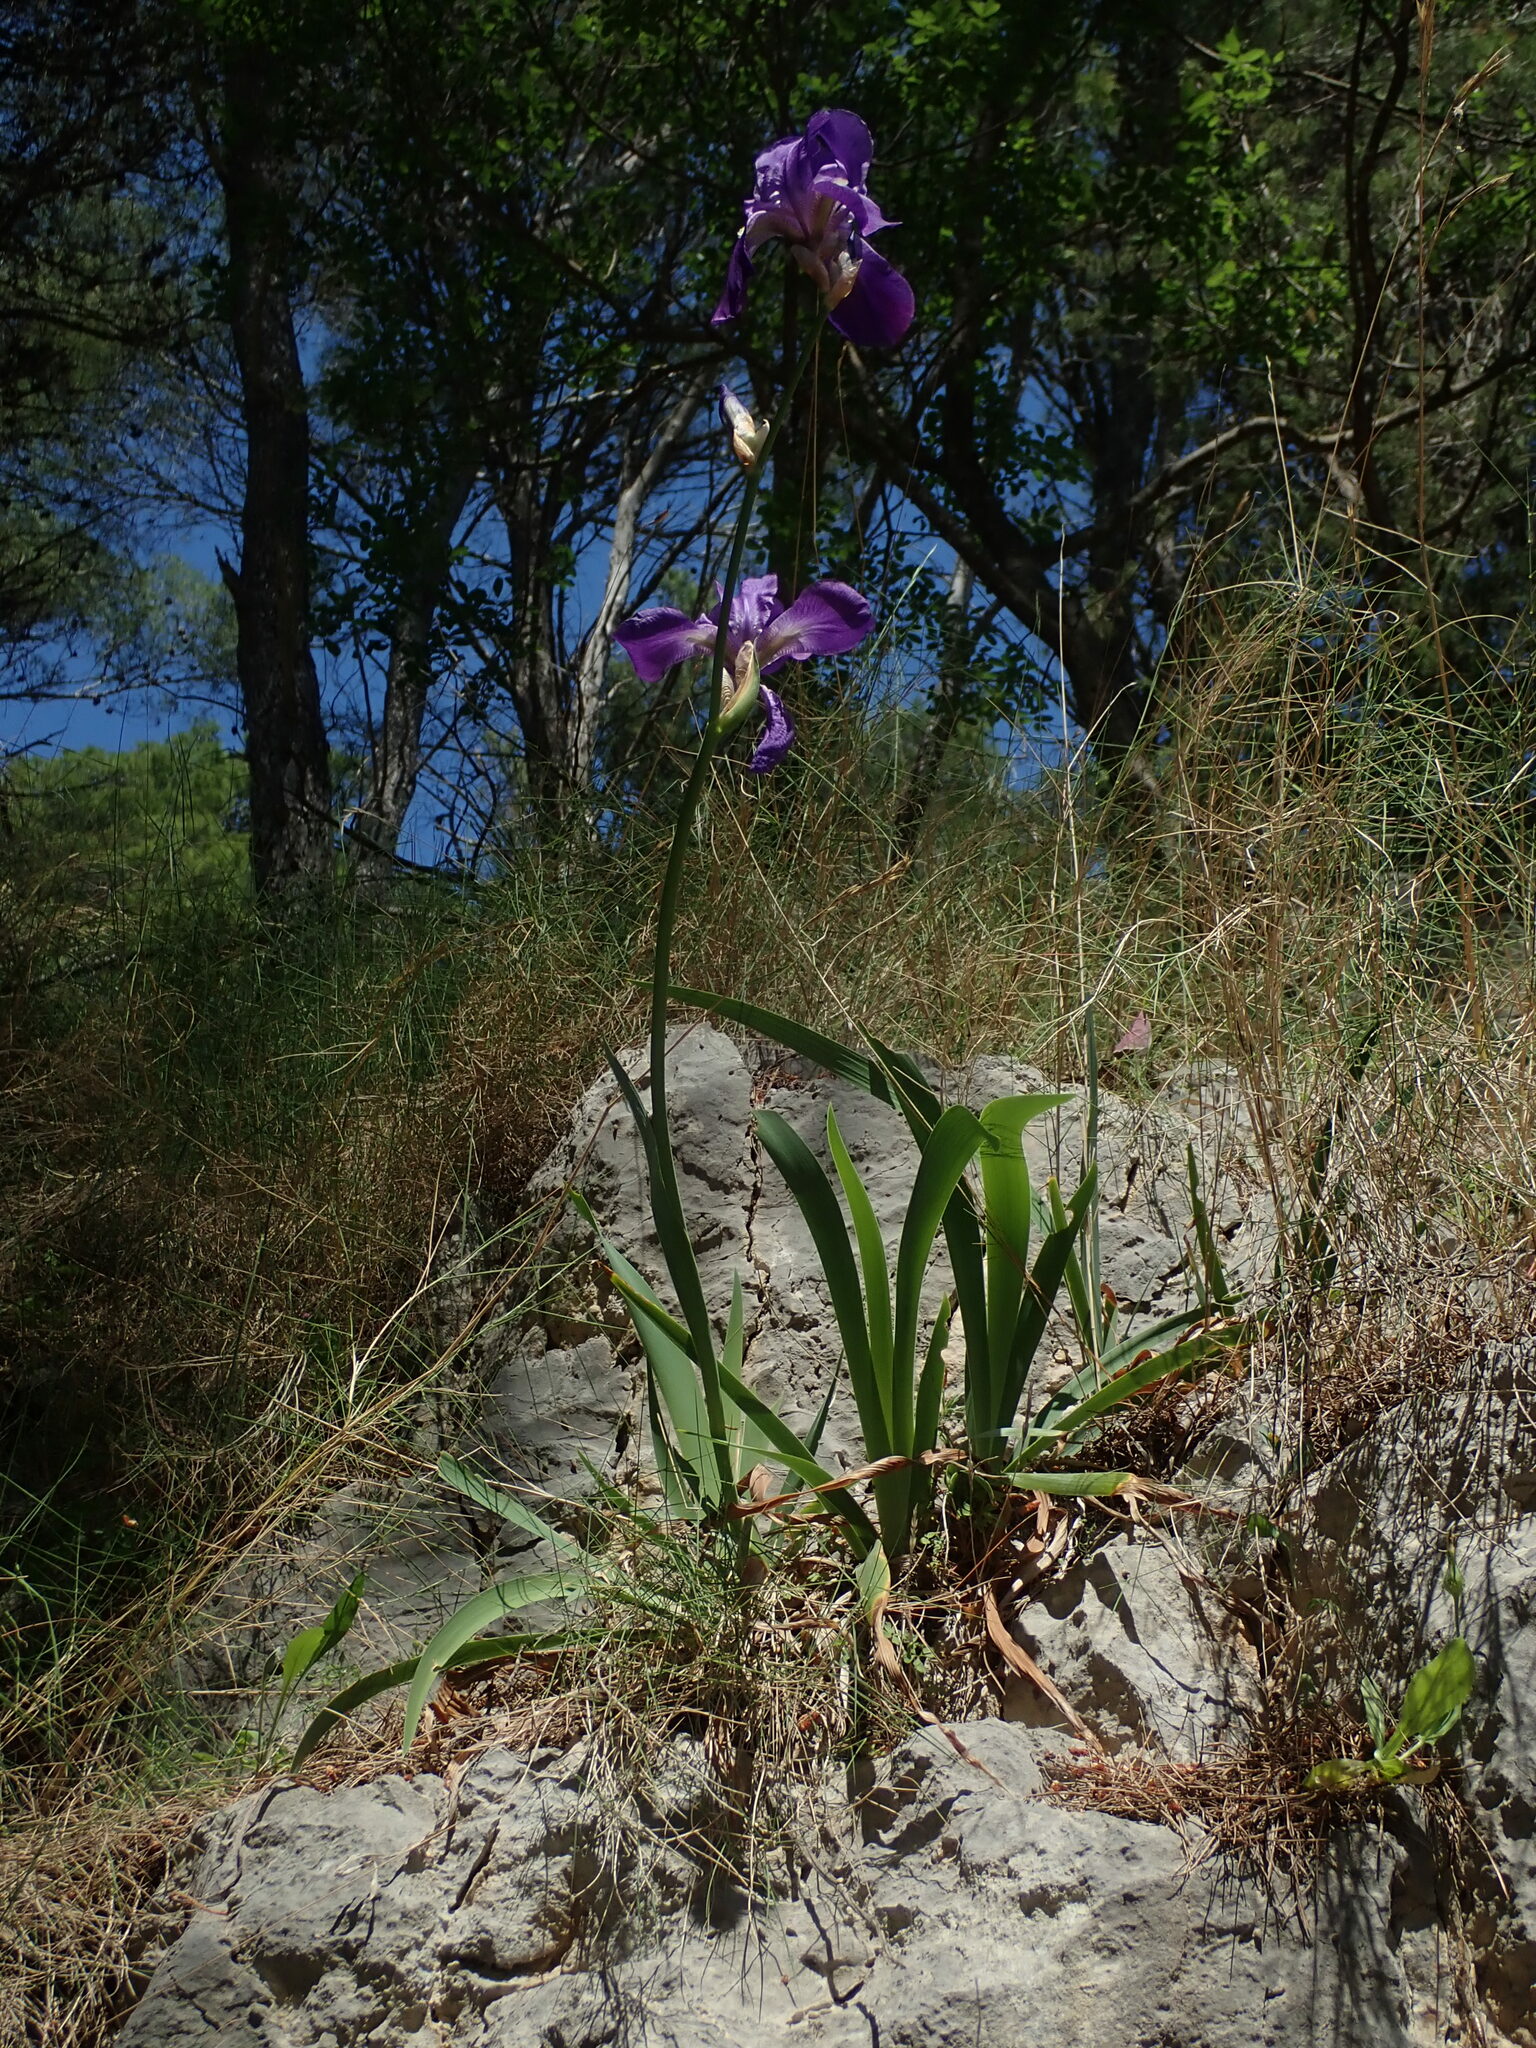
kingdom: Plantae
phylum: Tracheophyta
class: Liliopsida
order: Asparagales
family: Iridaceae
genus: Iris
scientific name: Iris pallida
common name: Sweet iris
